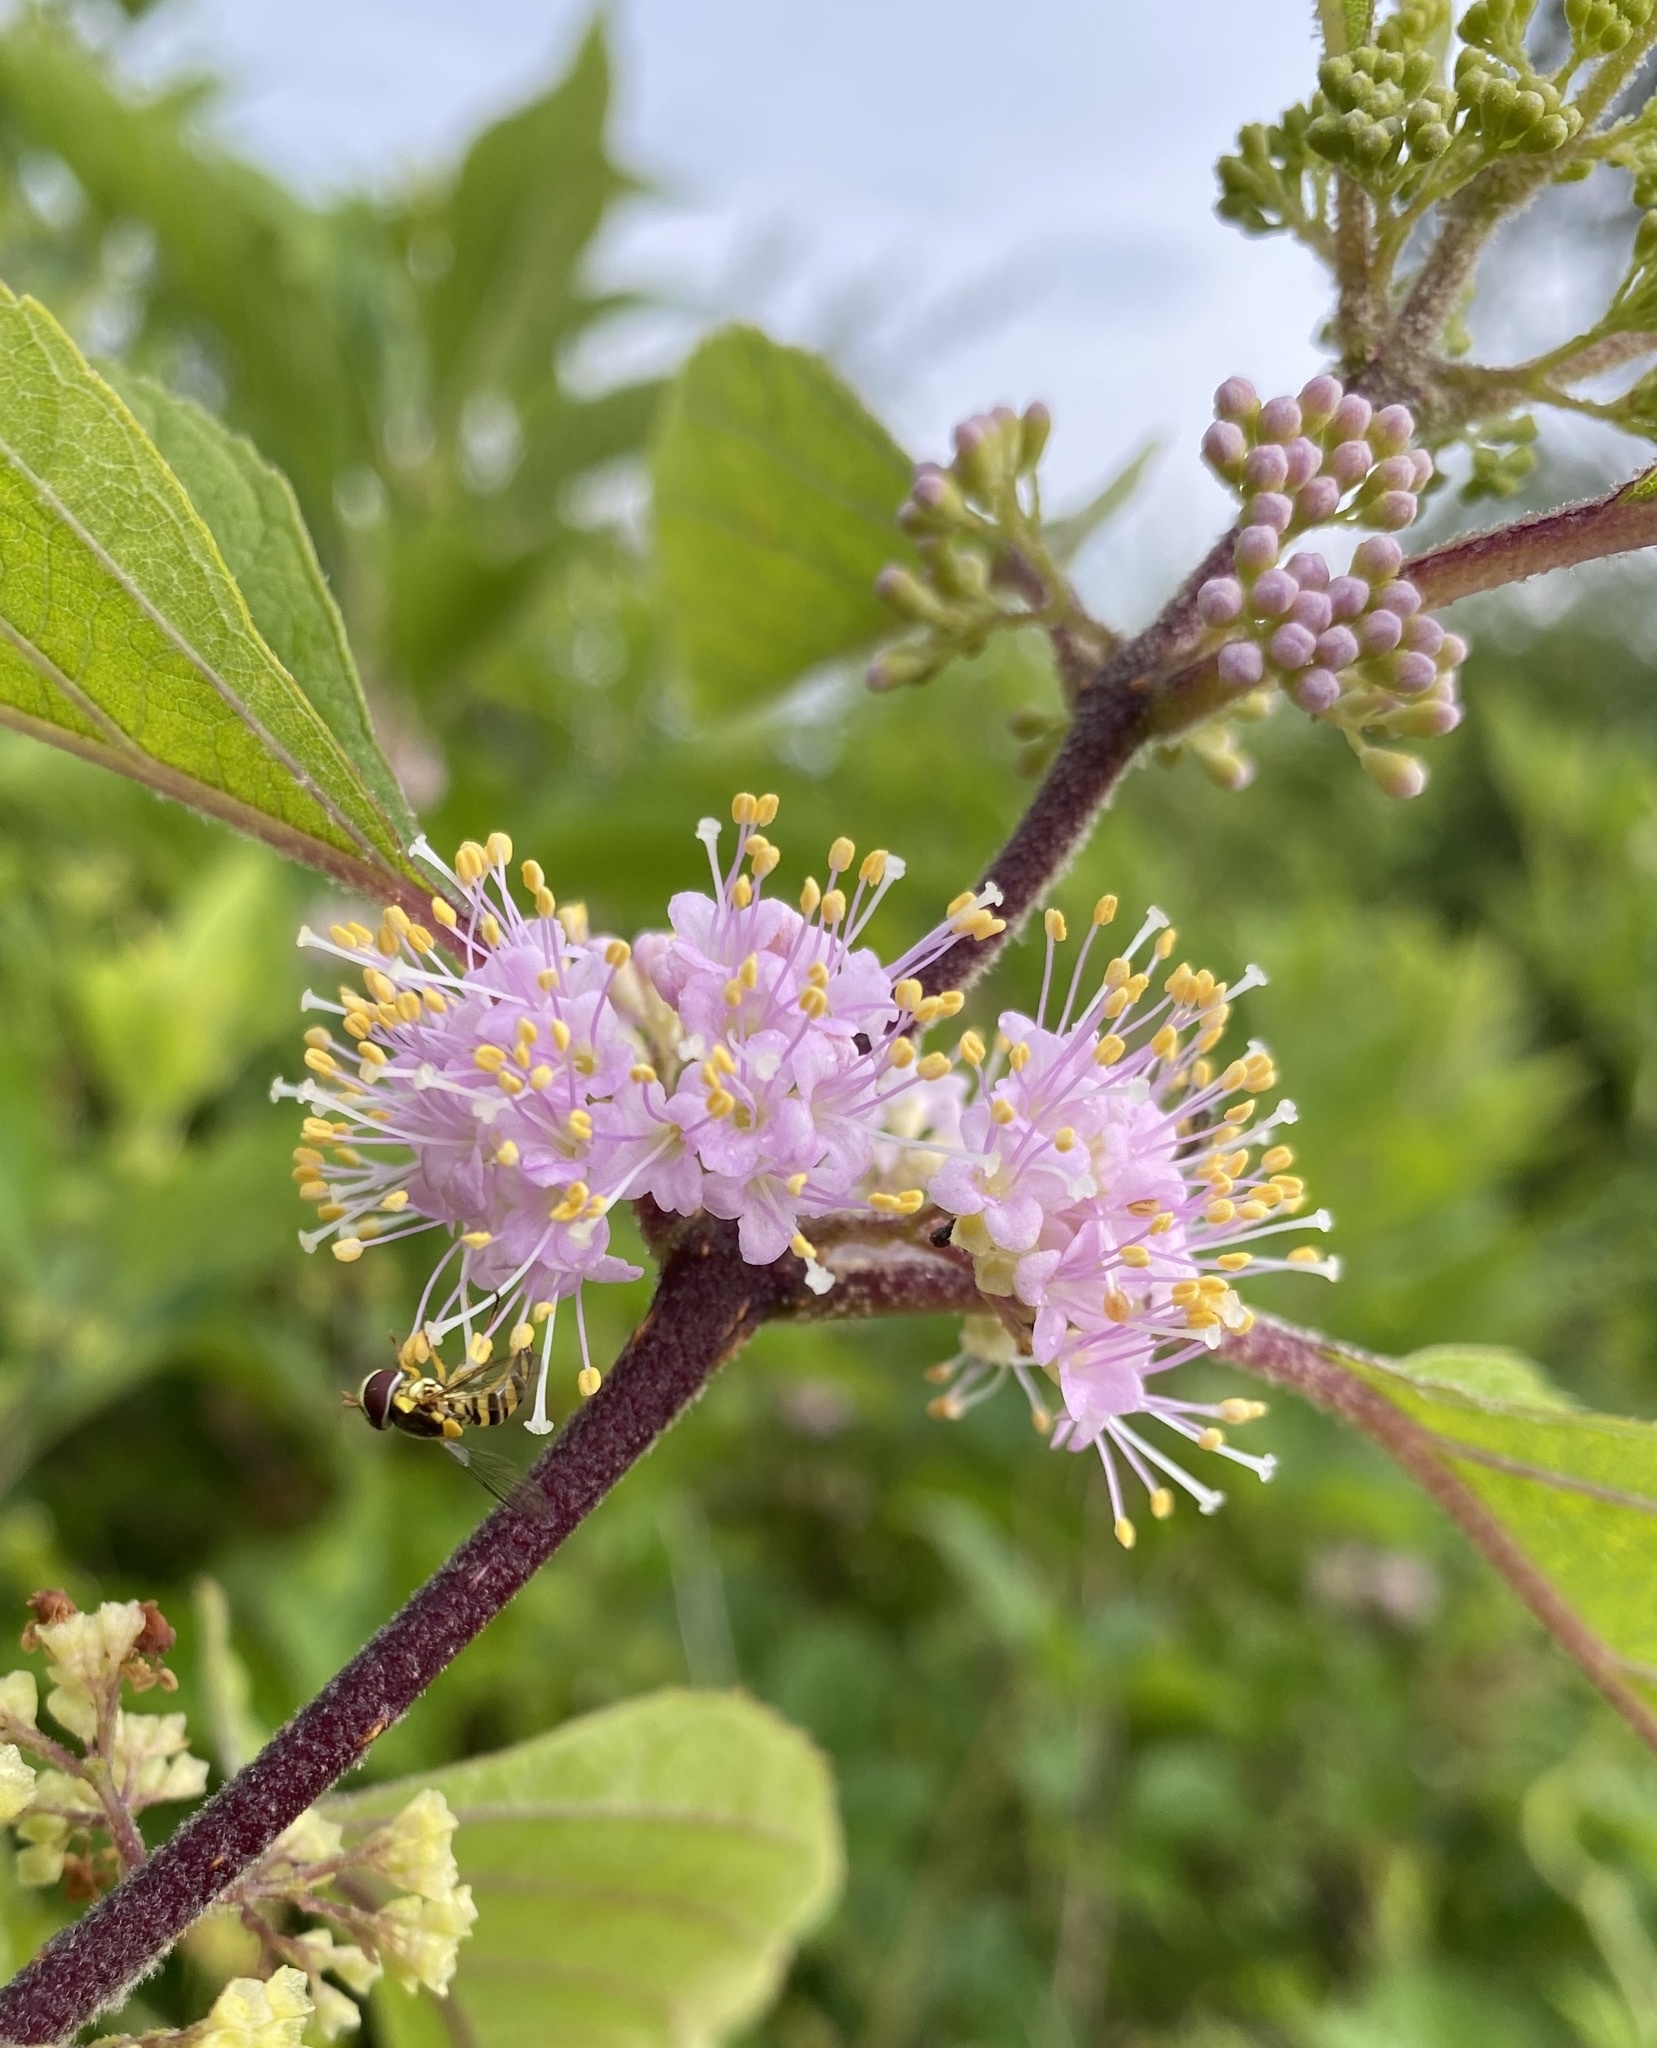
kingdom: Plantae
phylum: Tracheophyta
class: Magnoliopsida
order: Lamiales
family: Lamiaceae
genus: Callicarpa
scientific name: Callicarpa americana
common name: American beautyberry
